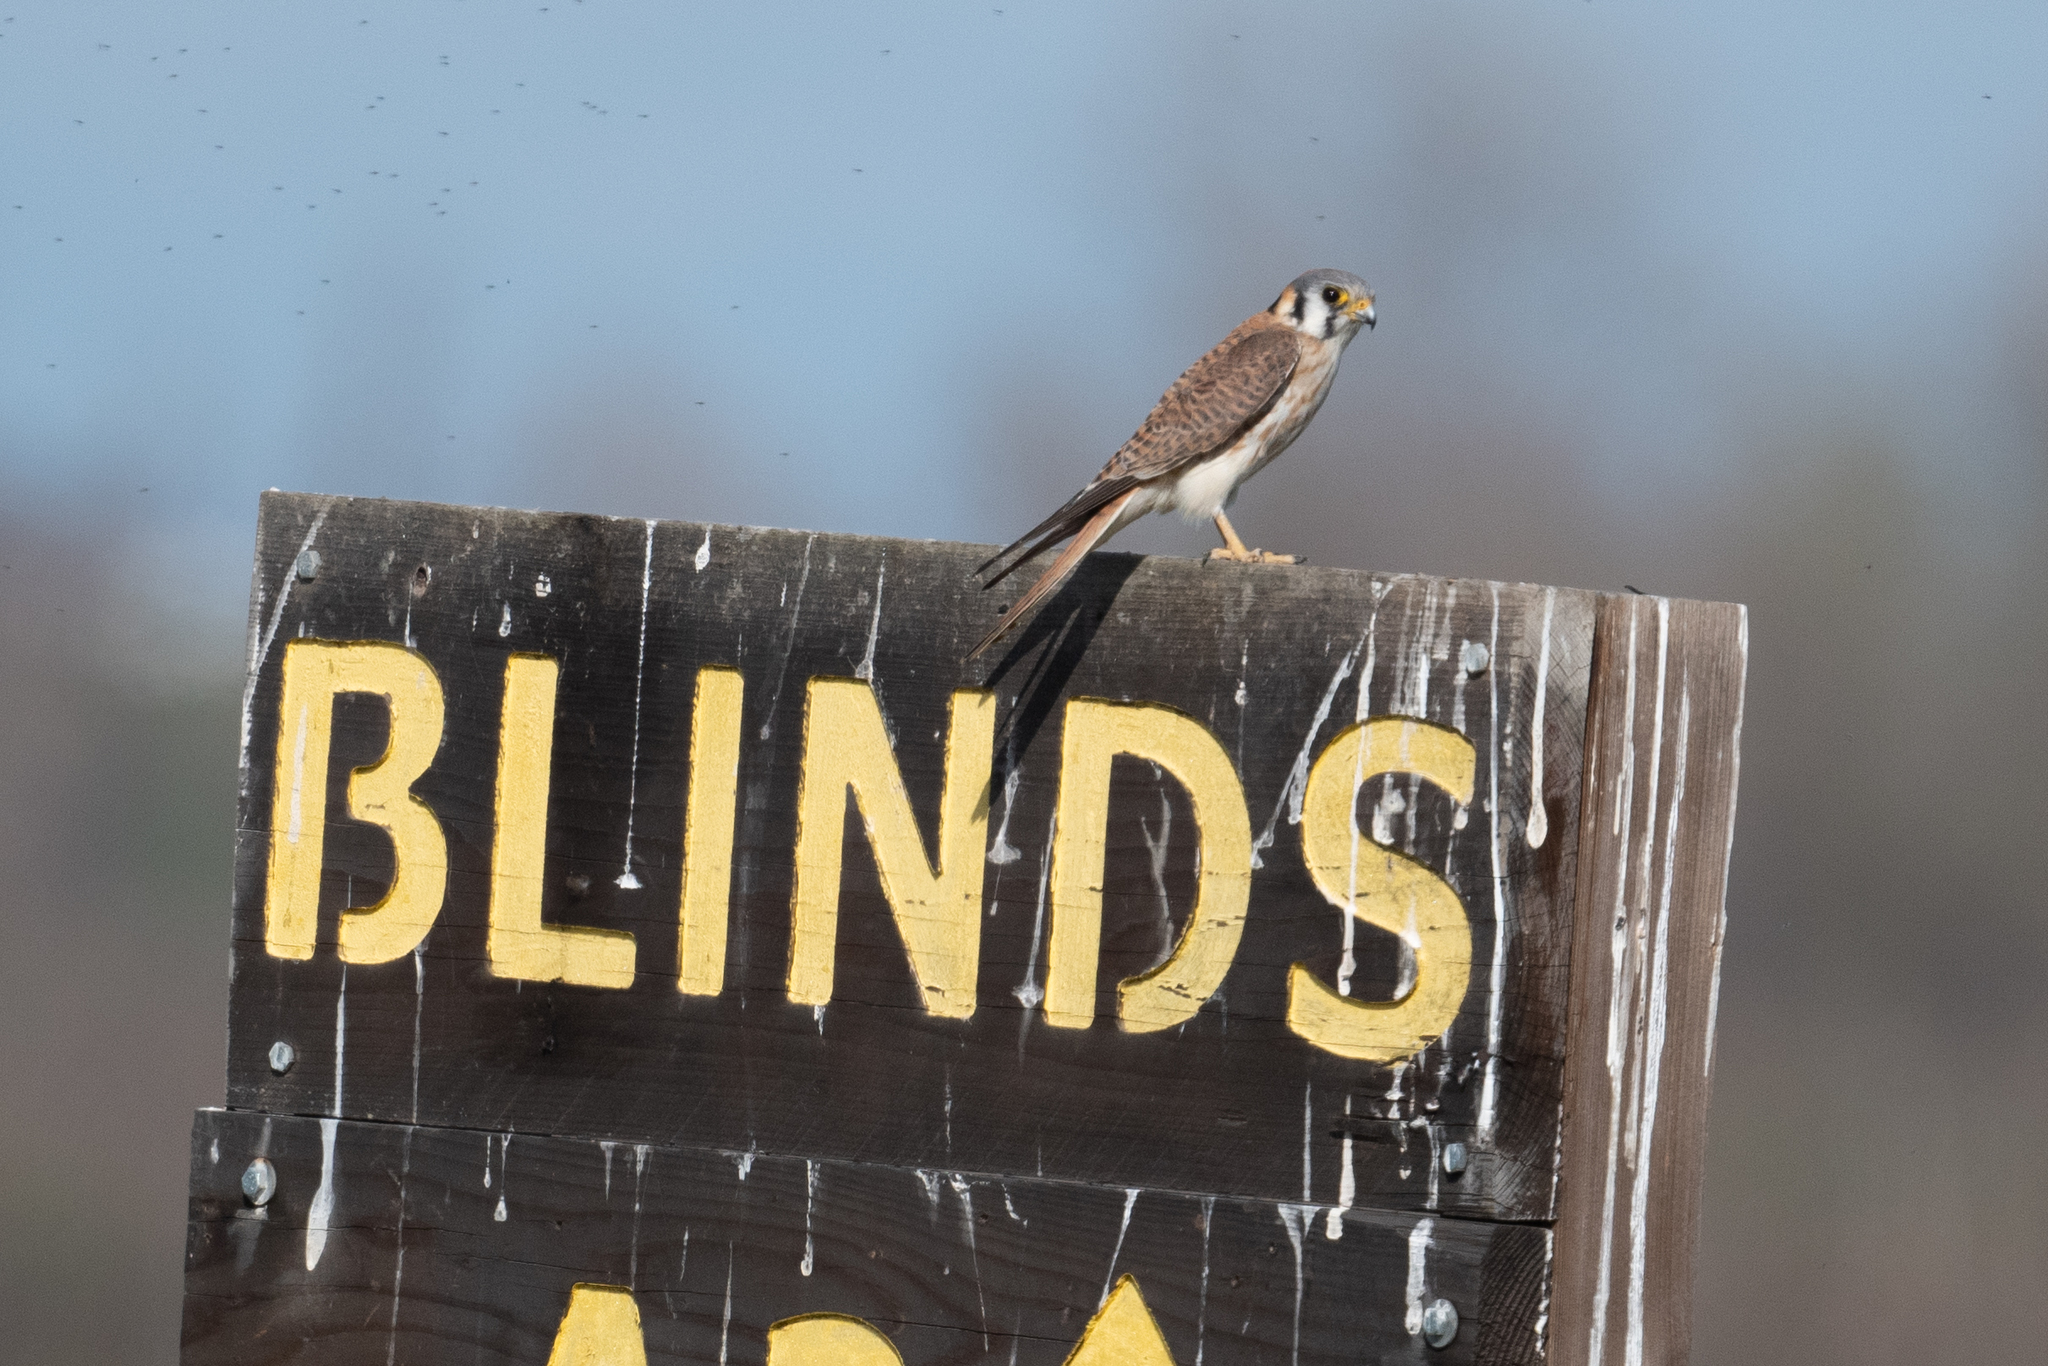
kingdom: Animalia
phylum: Chordata
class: Aves
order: Falconiformes
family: Falconidae
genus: Falco
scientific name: Falco sparverius
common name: American kestrel
